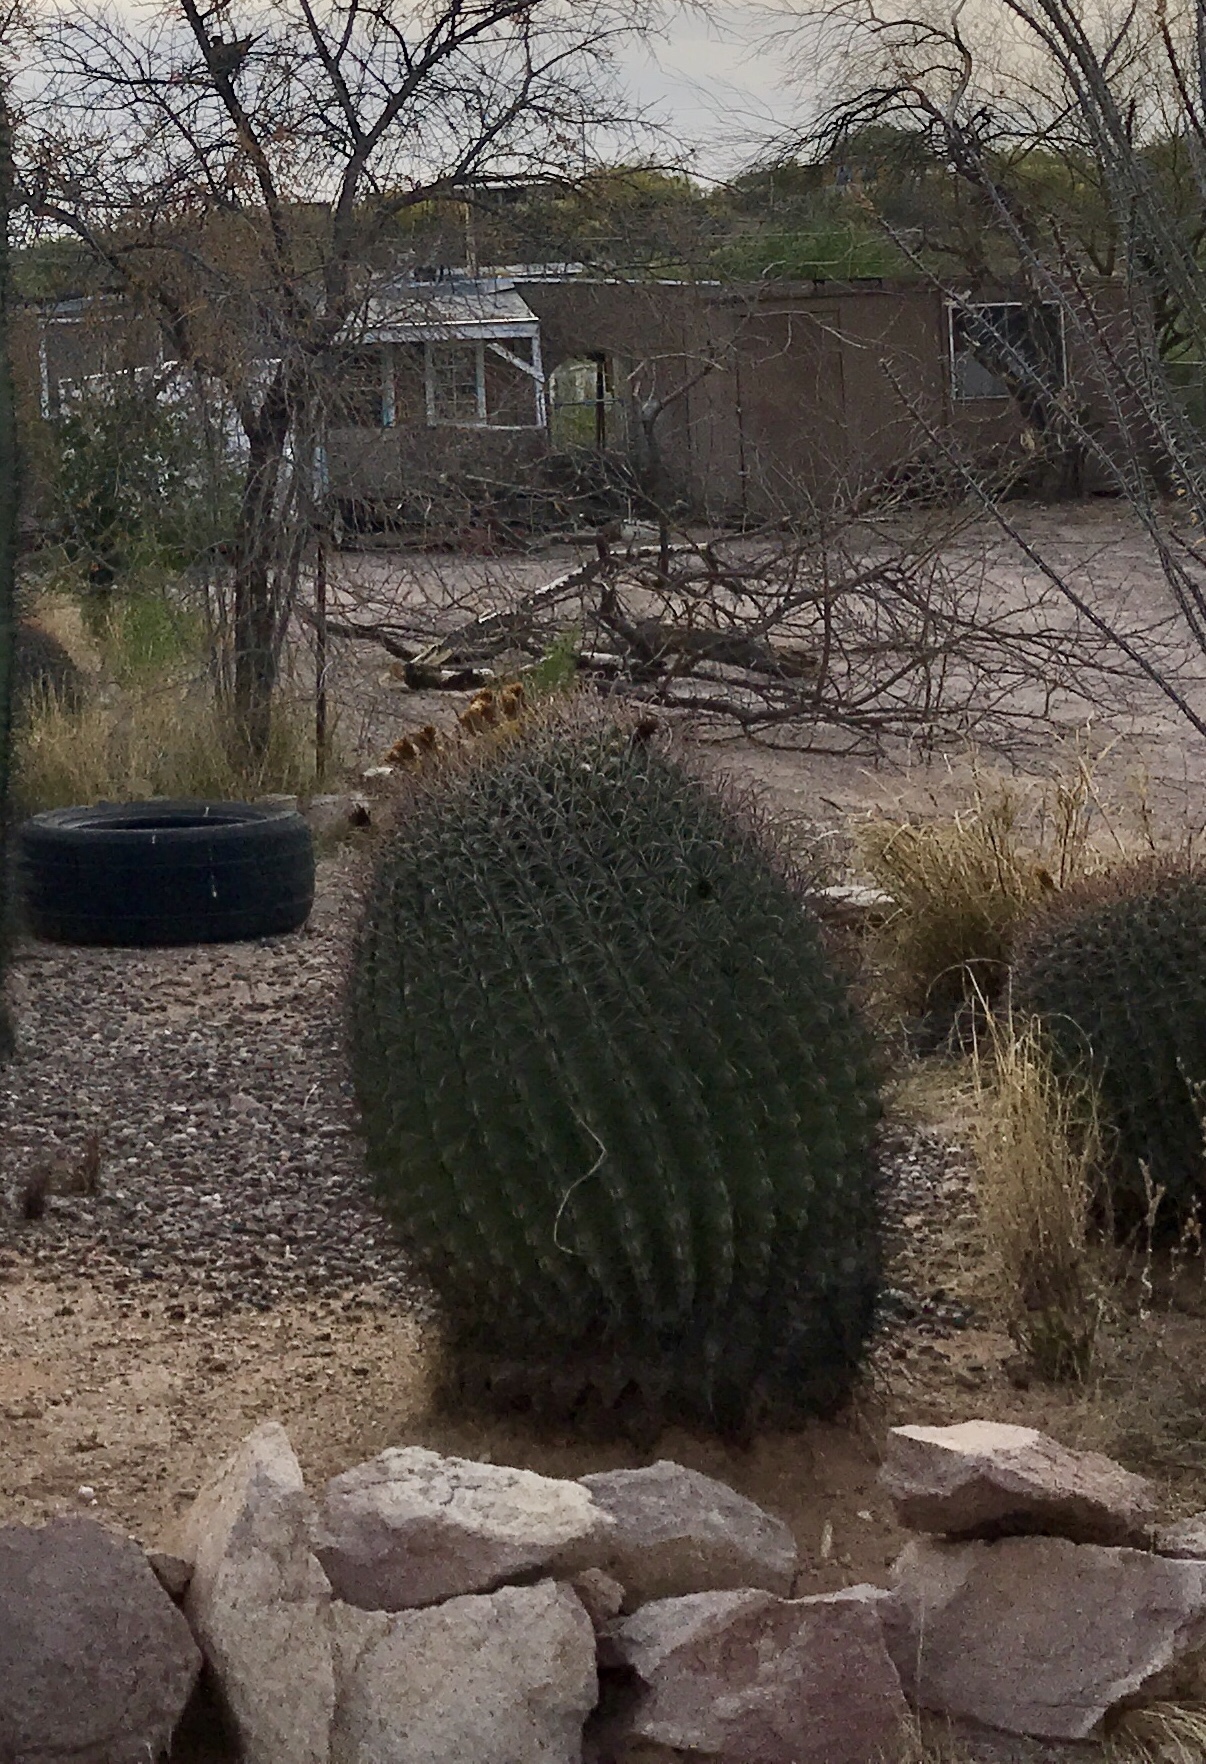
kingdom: Plantae
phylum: Tracheophyta
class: Magnoliopsida
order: Caryophyllales
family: Cactaceae
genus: Ferocactus
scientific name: Ferocactus wislizeni
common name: Candy barrel cactus
